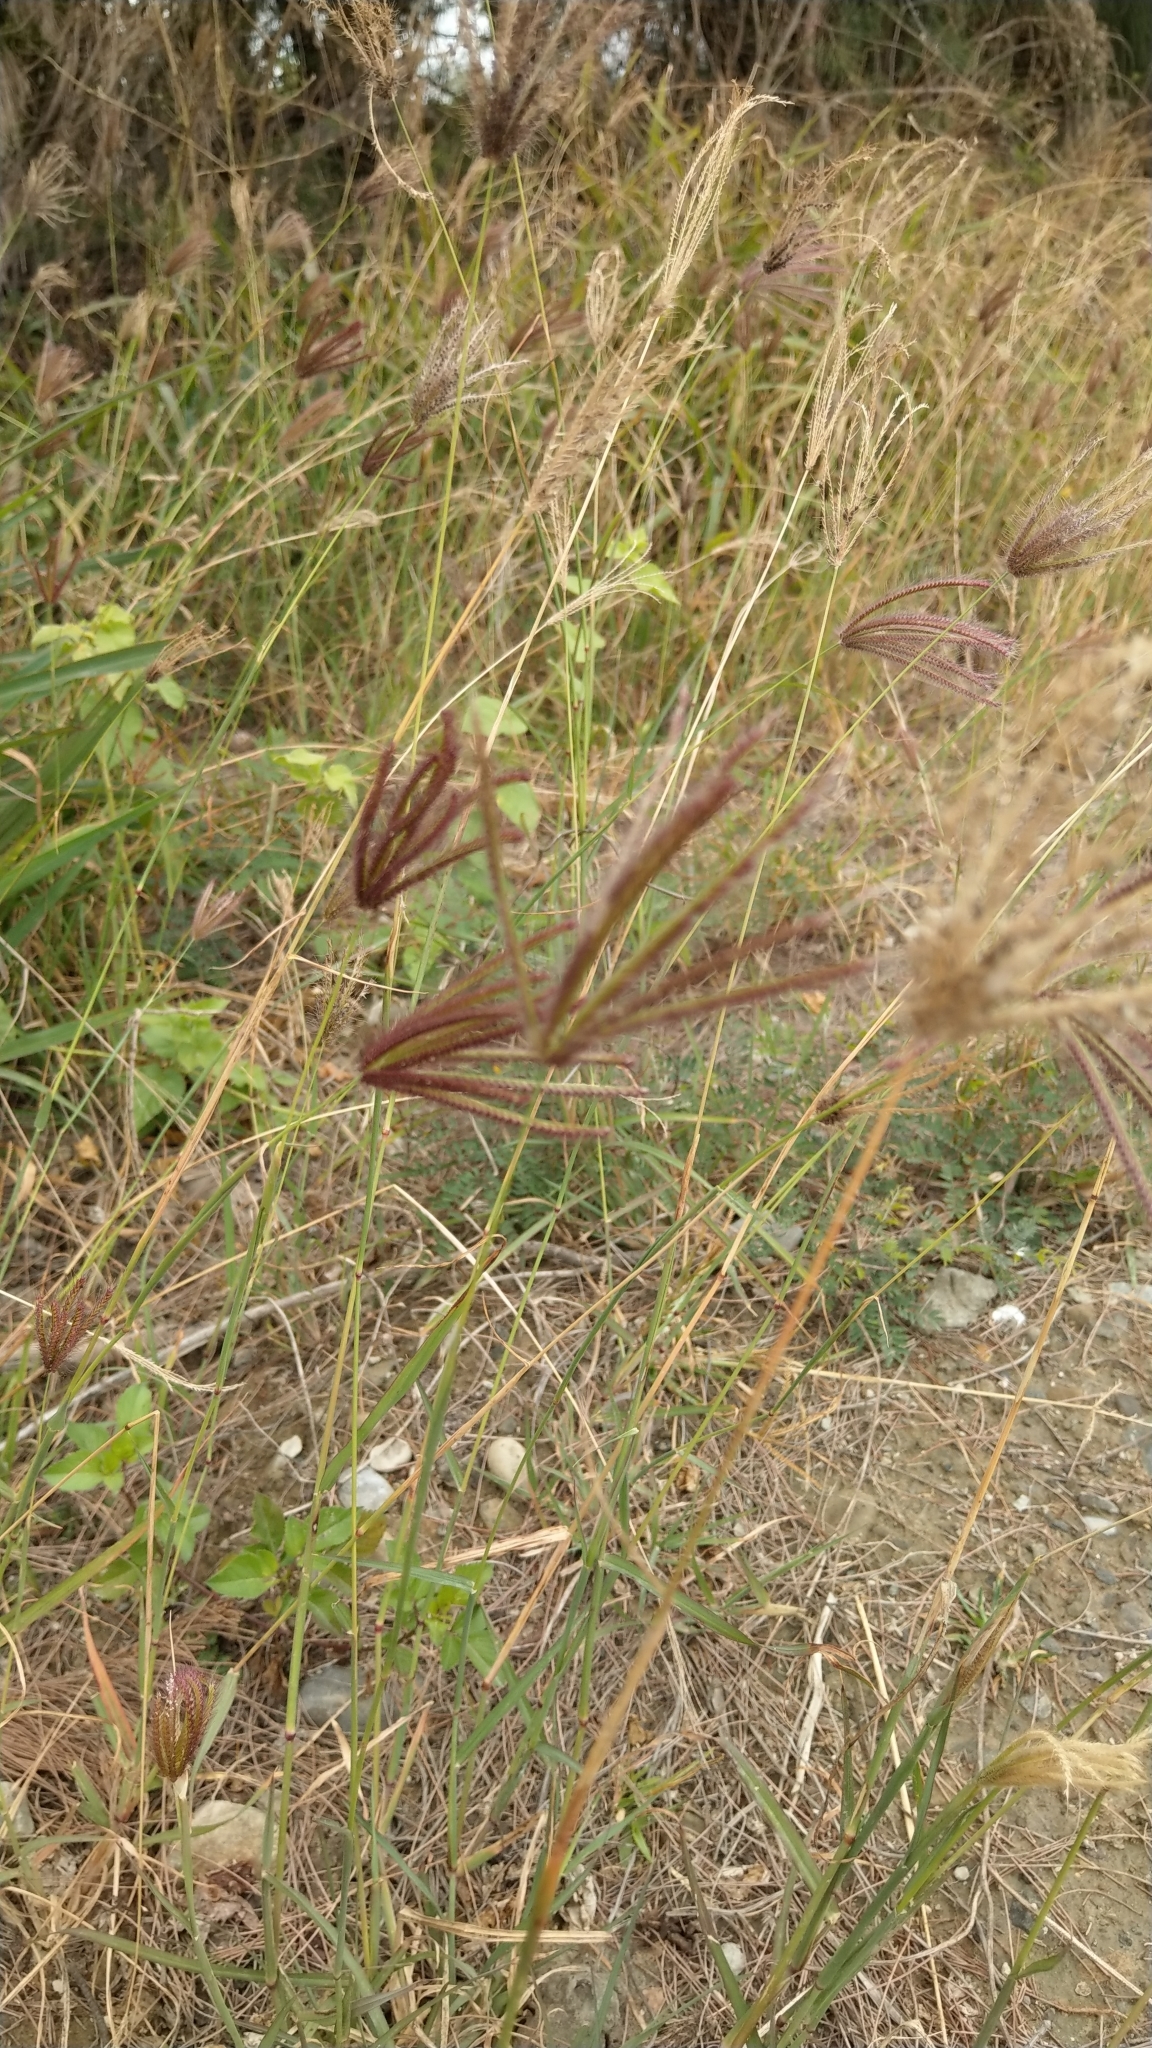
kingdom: Plantae
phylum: Tracheophyta
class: Liliopsida
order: Poales
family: Poaceae
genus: Chloris
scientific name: Chloris barbata
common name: Swollen fingergrass
